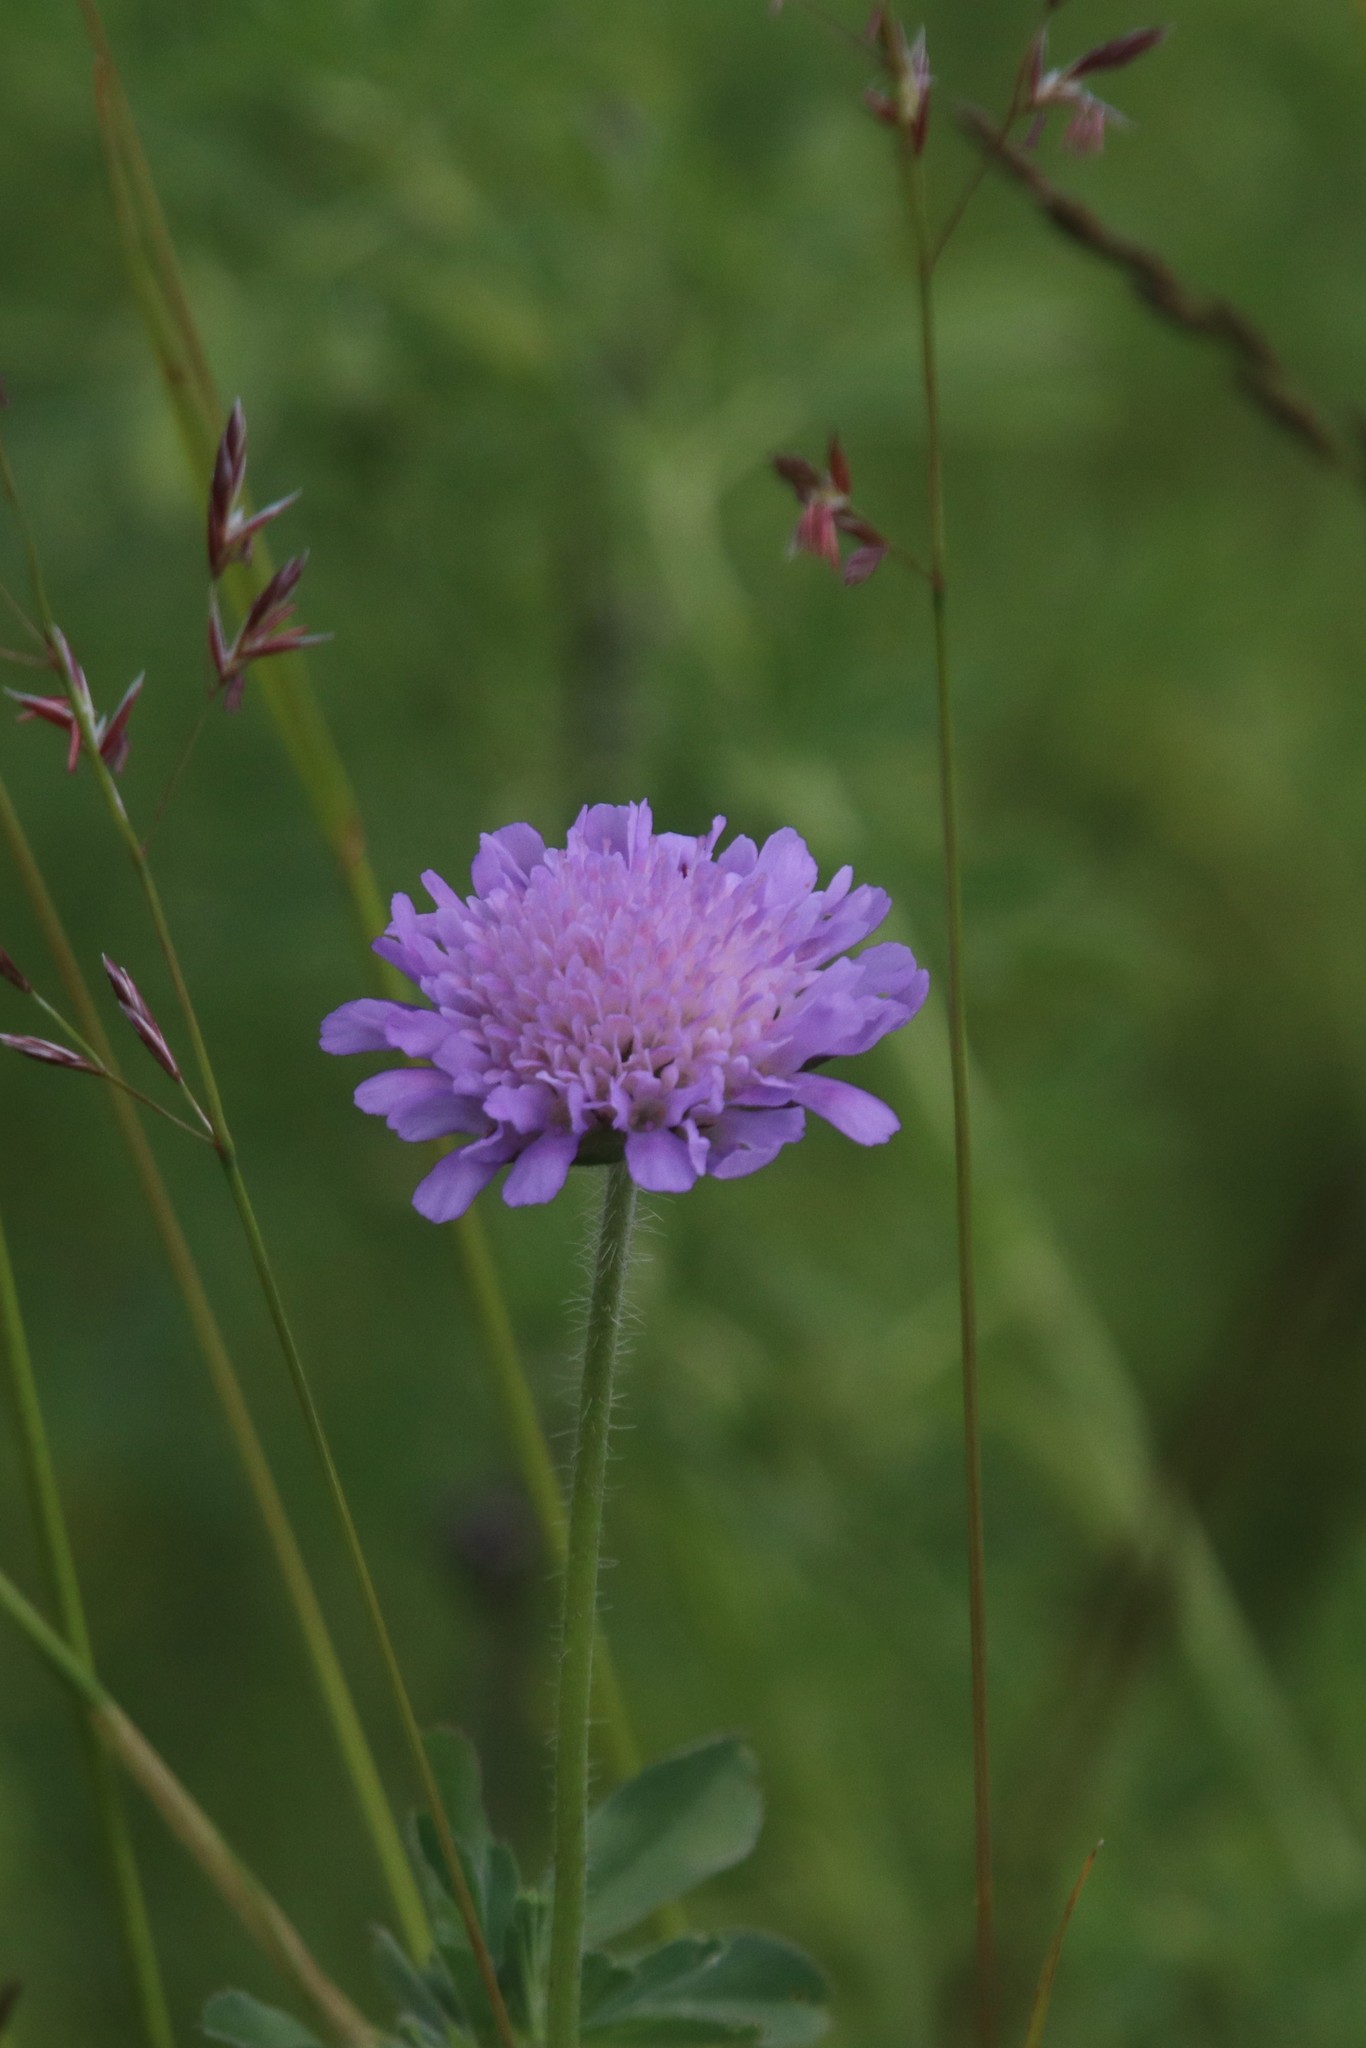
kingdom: Plantae
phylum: Tracheophyta
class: Magnoliopsida
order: Dipsacales
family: Caprifoliaceae
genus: Knautia
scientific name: Knautia arvensis
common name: Field scabiosa
